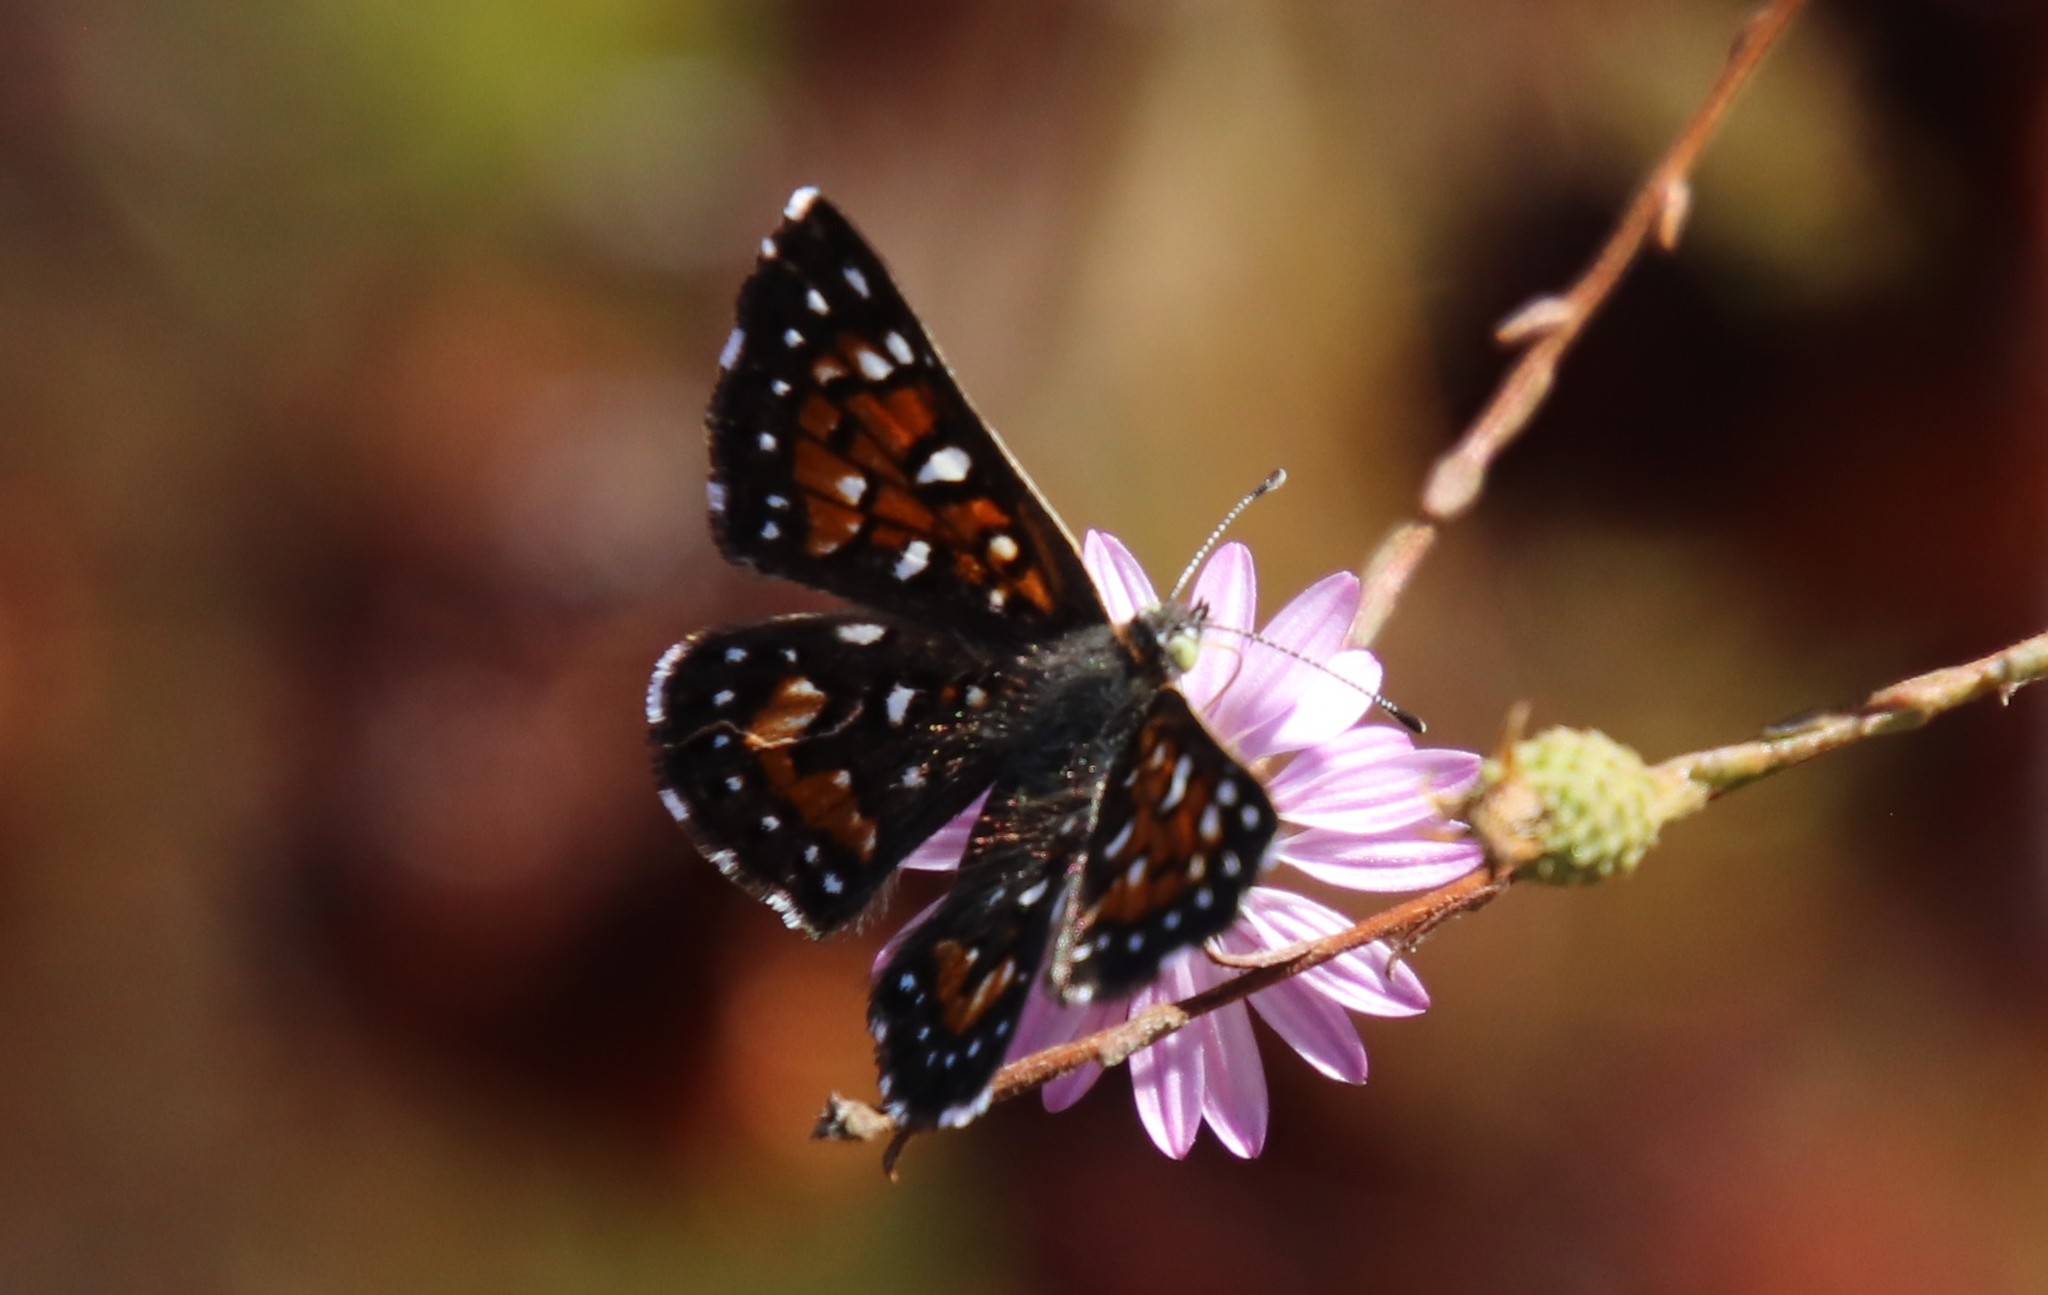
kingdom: Animalia
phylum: Arthropoda
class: Insecta
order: Lepidoptera
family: Riodinidae
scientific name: Riodinidae
